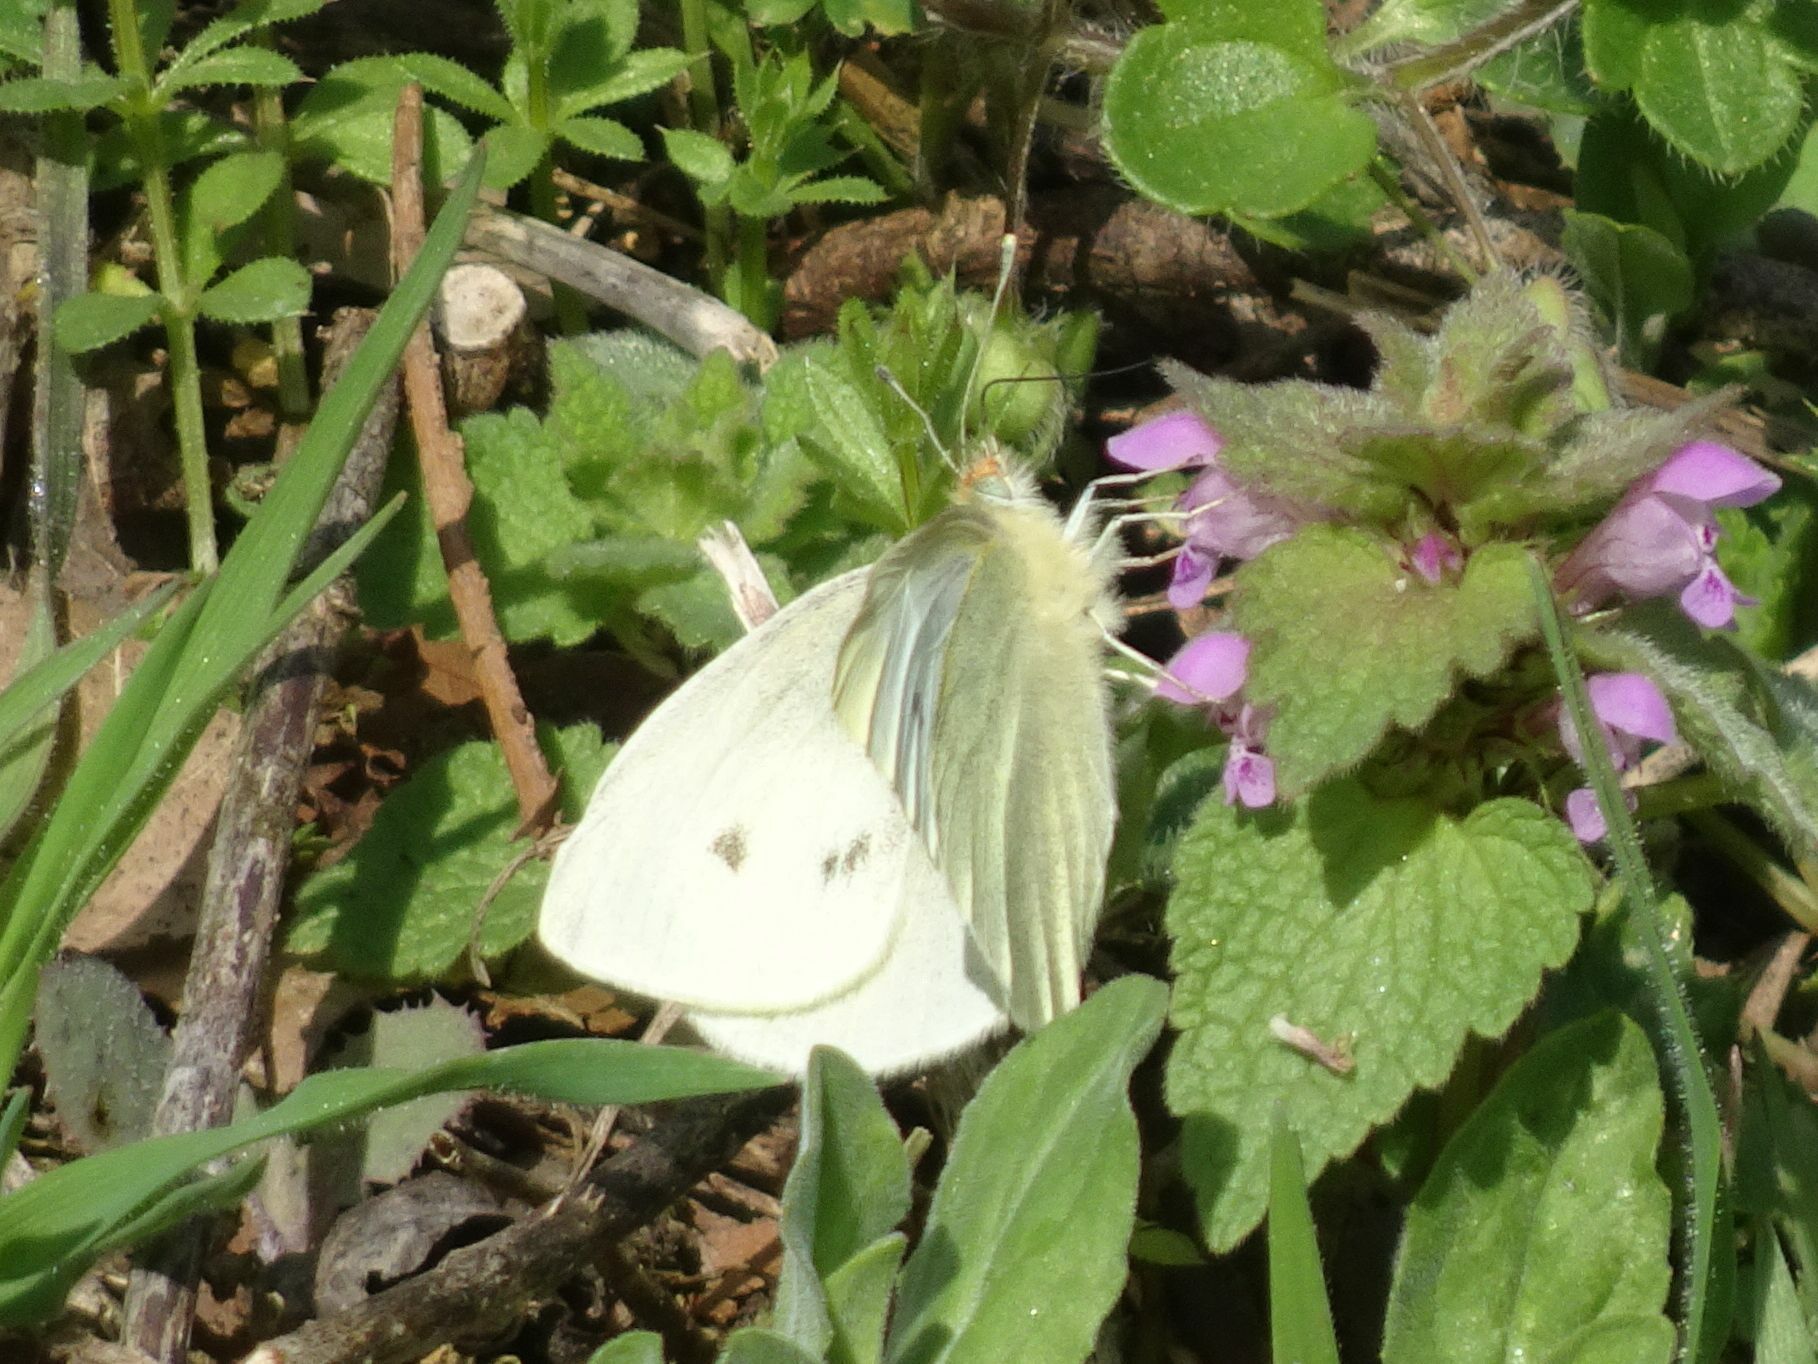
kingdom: Animalia
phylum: Arthropoda
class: Insecta
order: Lepidoptera
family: Pieridae
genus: Pieris
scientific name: Pieris rapae
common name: Small white
